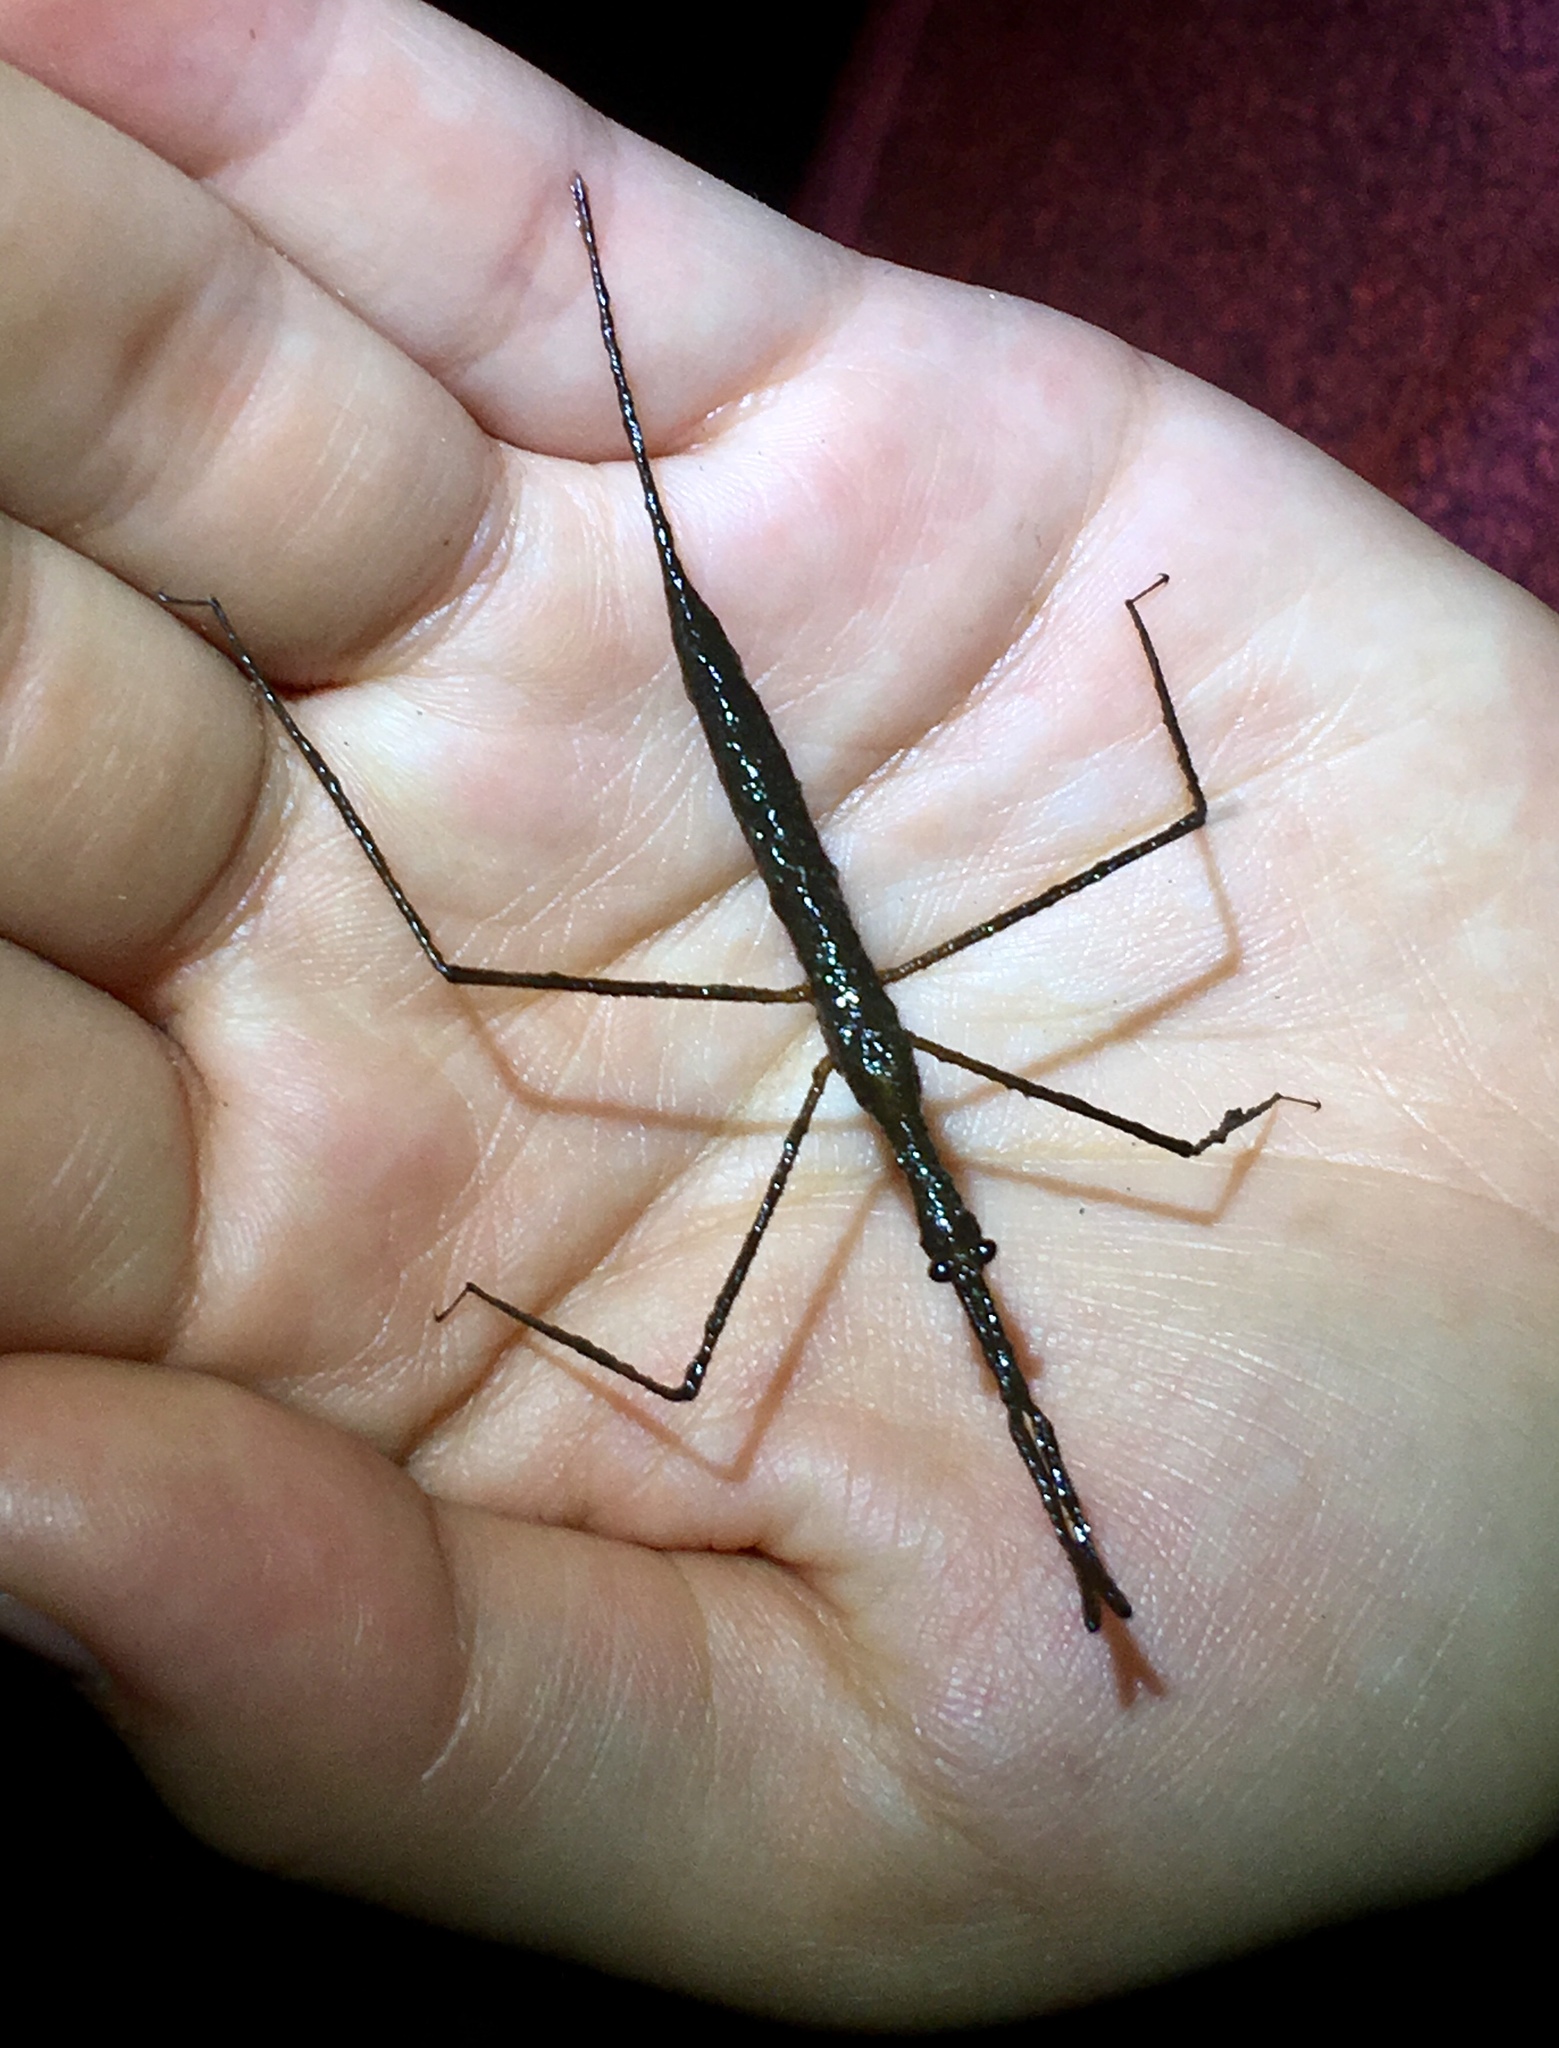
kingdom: Animalia
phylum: Arthropoda
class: Insecta
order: Hemiptera
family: Nepidae
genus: Ranatra
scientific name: Ranatra
